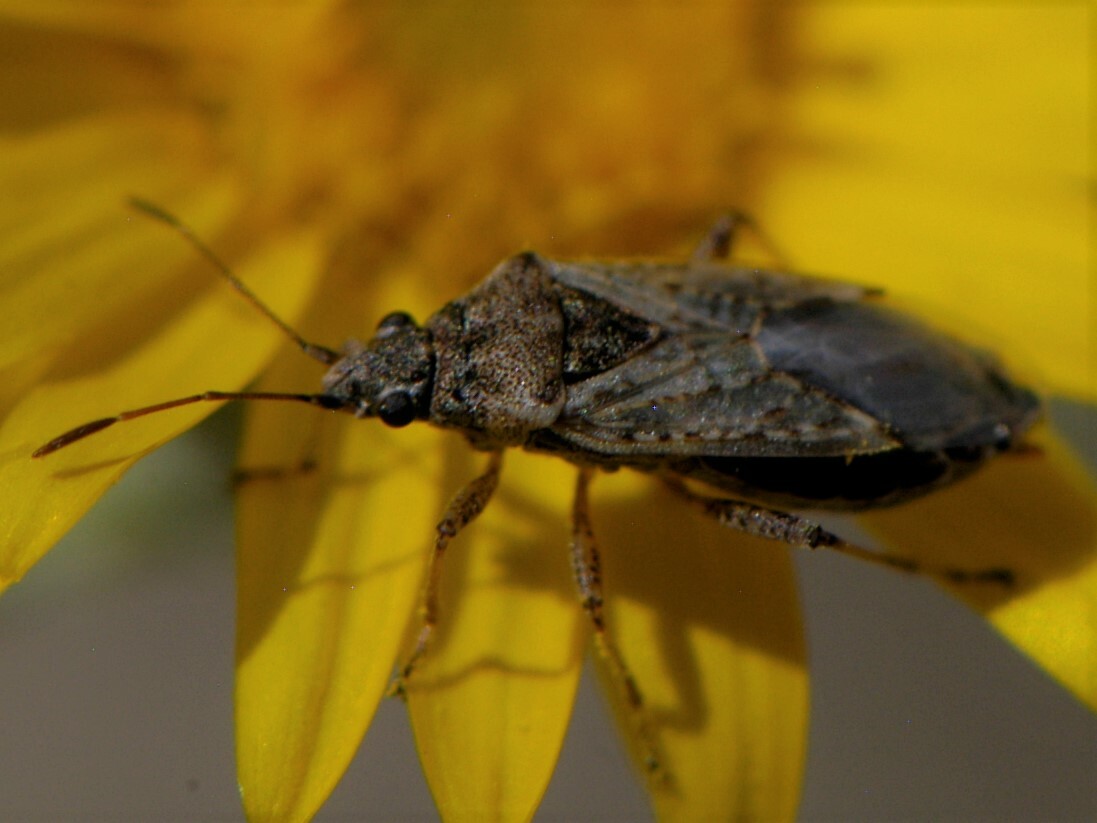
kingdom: Animalia
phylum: Arthropoda
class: Insecta
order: Hemiptera
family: Lygaeidae
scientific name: Lygaeidae
